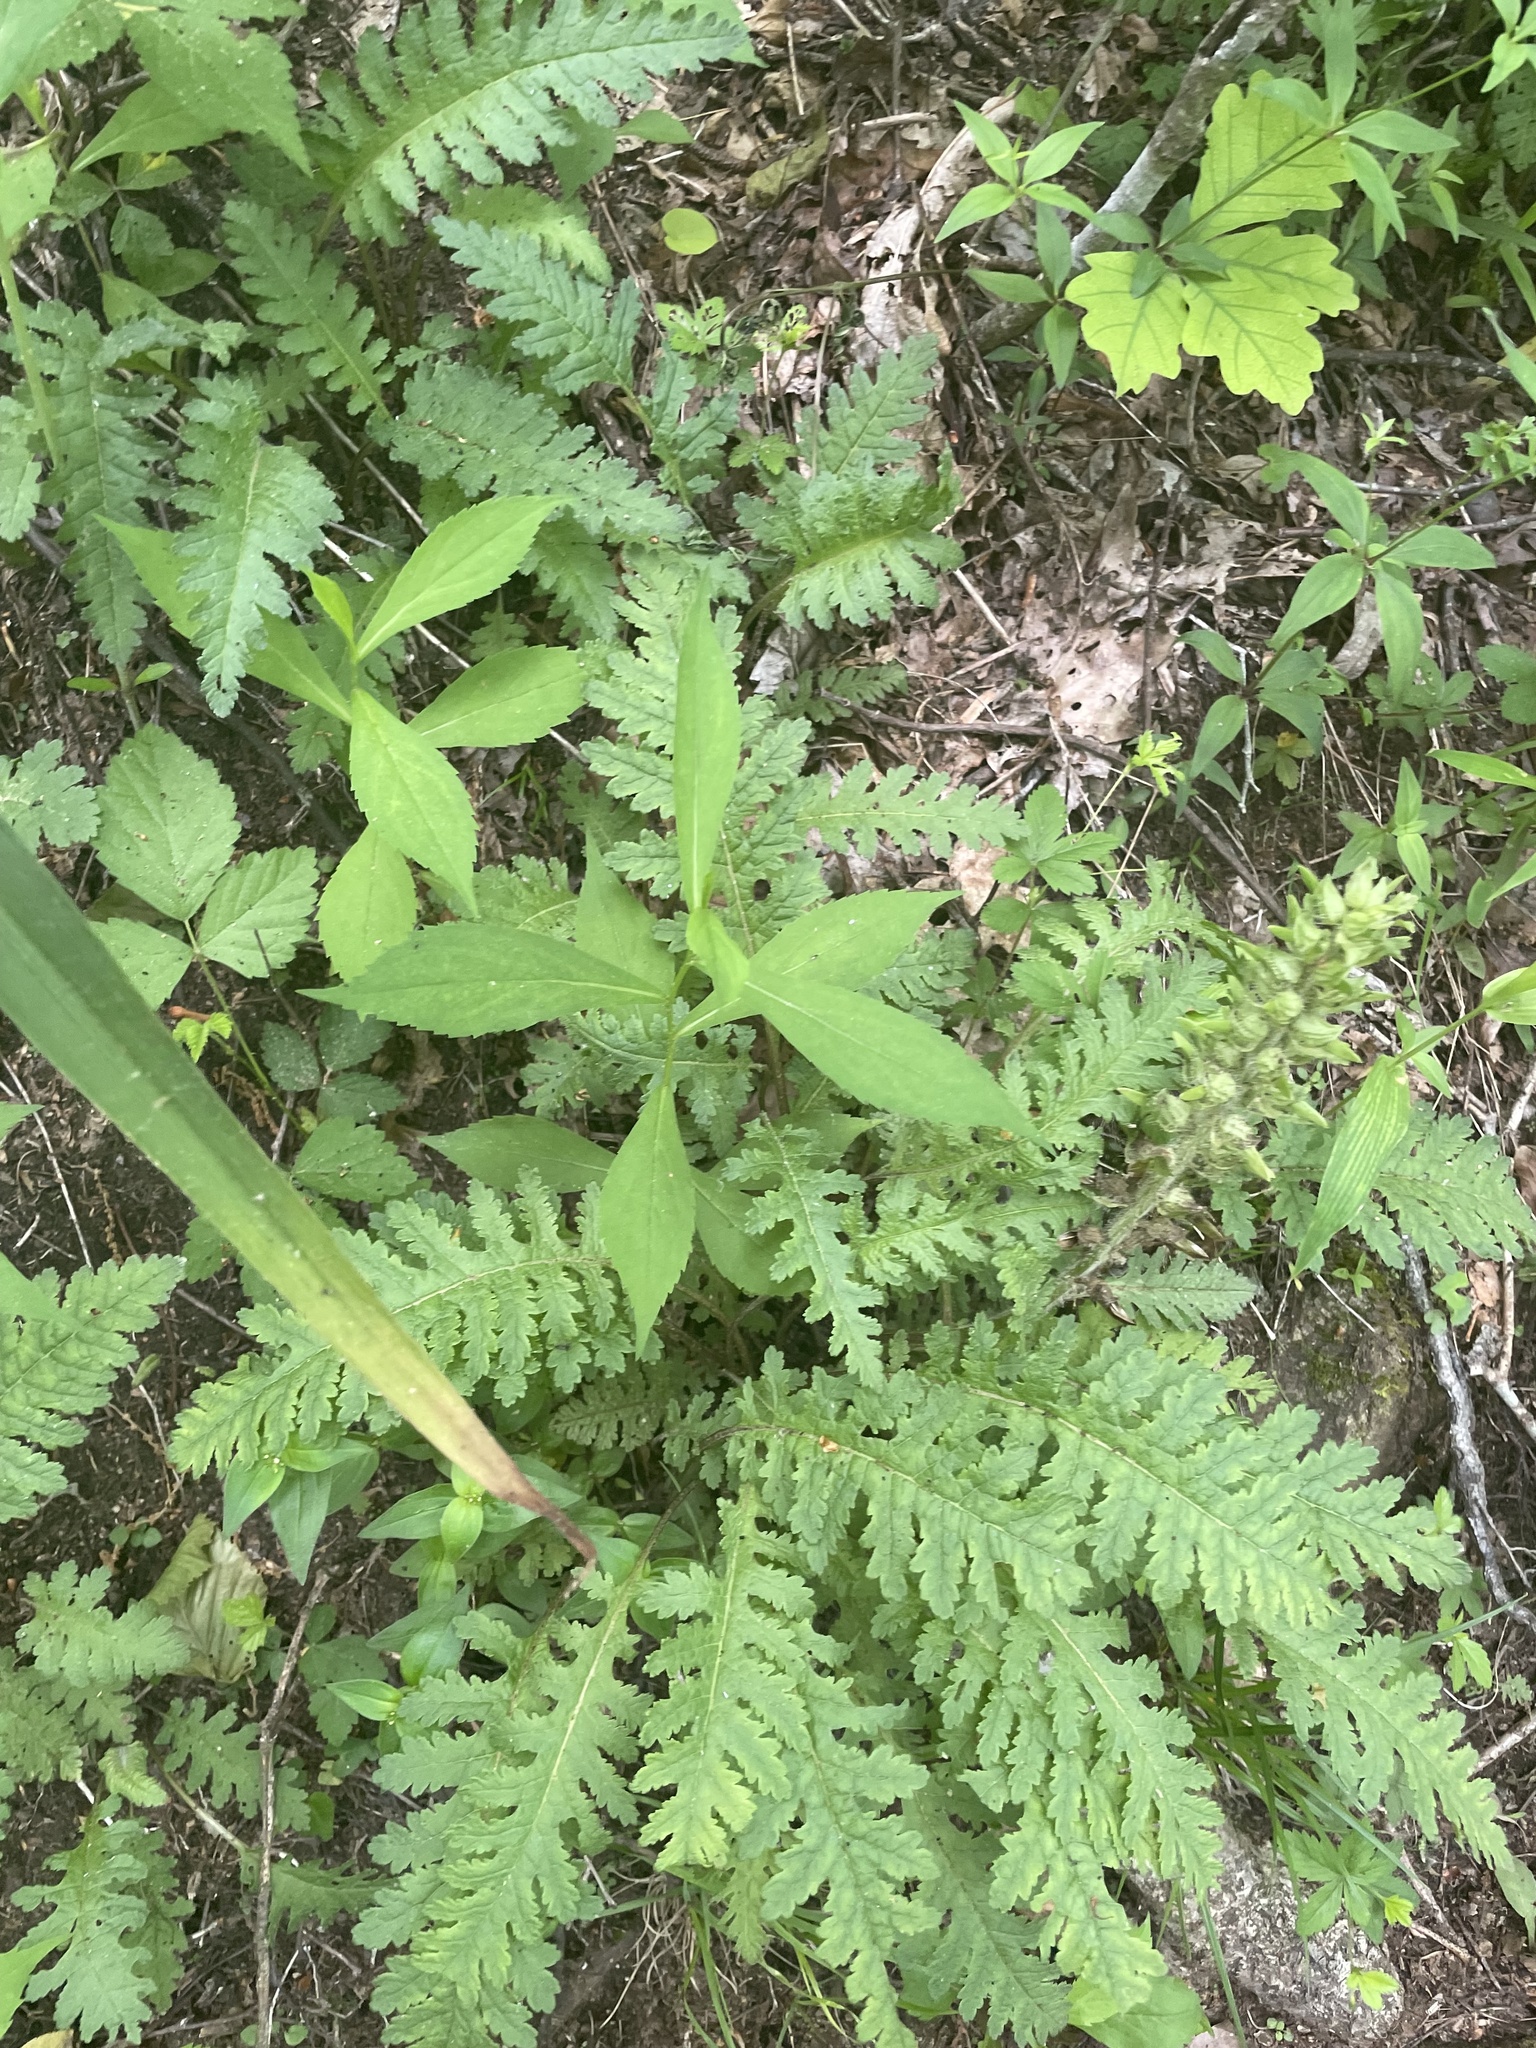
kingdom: Plantae
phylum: Tracheophyta
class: Magnoliopsida
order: Lamiales
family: Orobanchaceae
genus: Pedicularis
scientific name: Pedicularis canadensis
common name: Early lousewort
